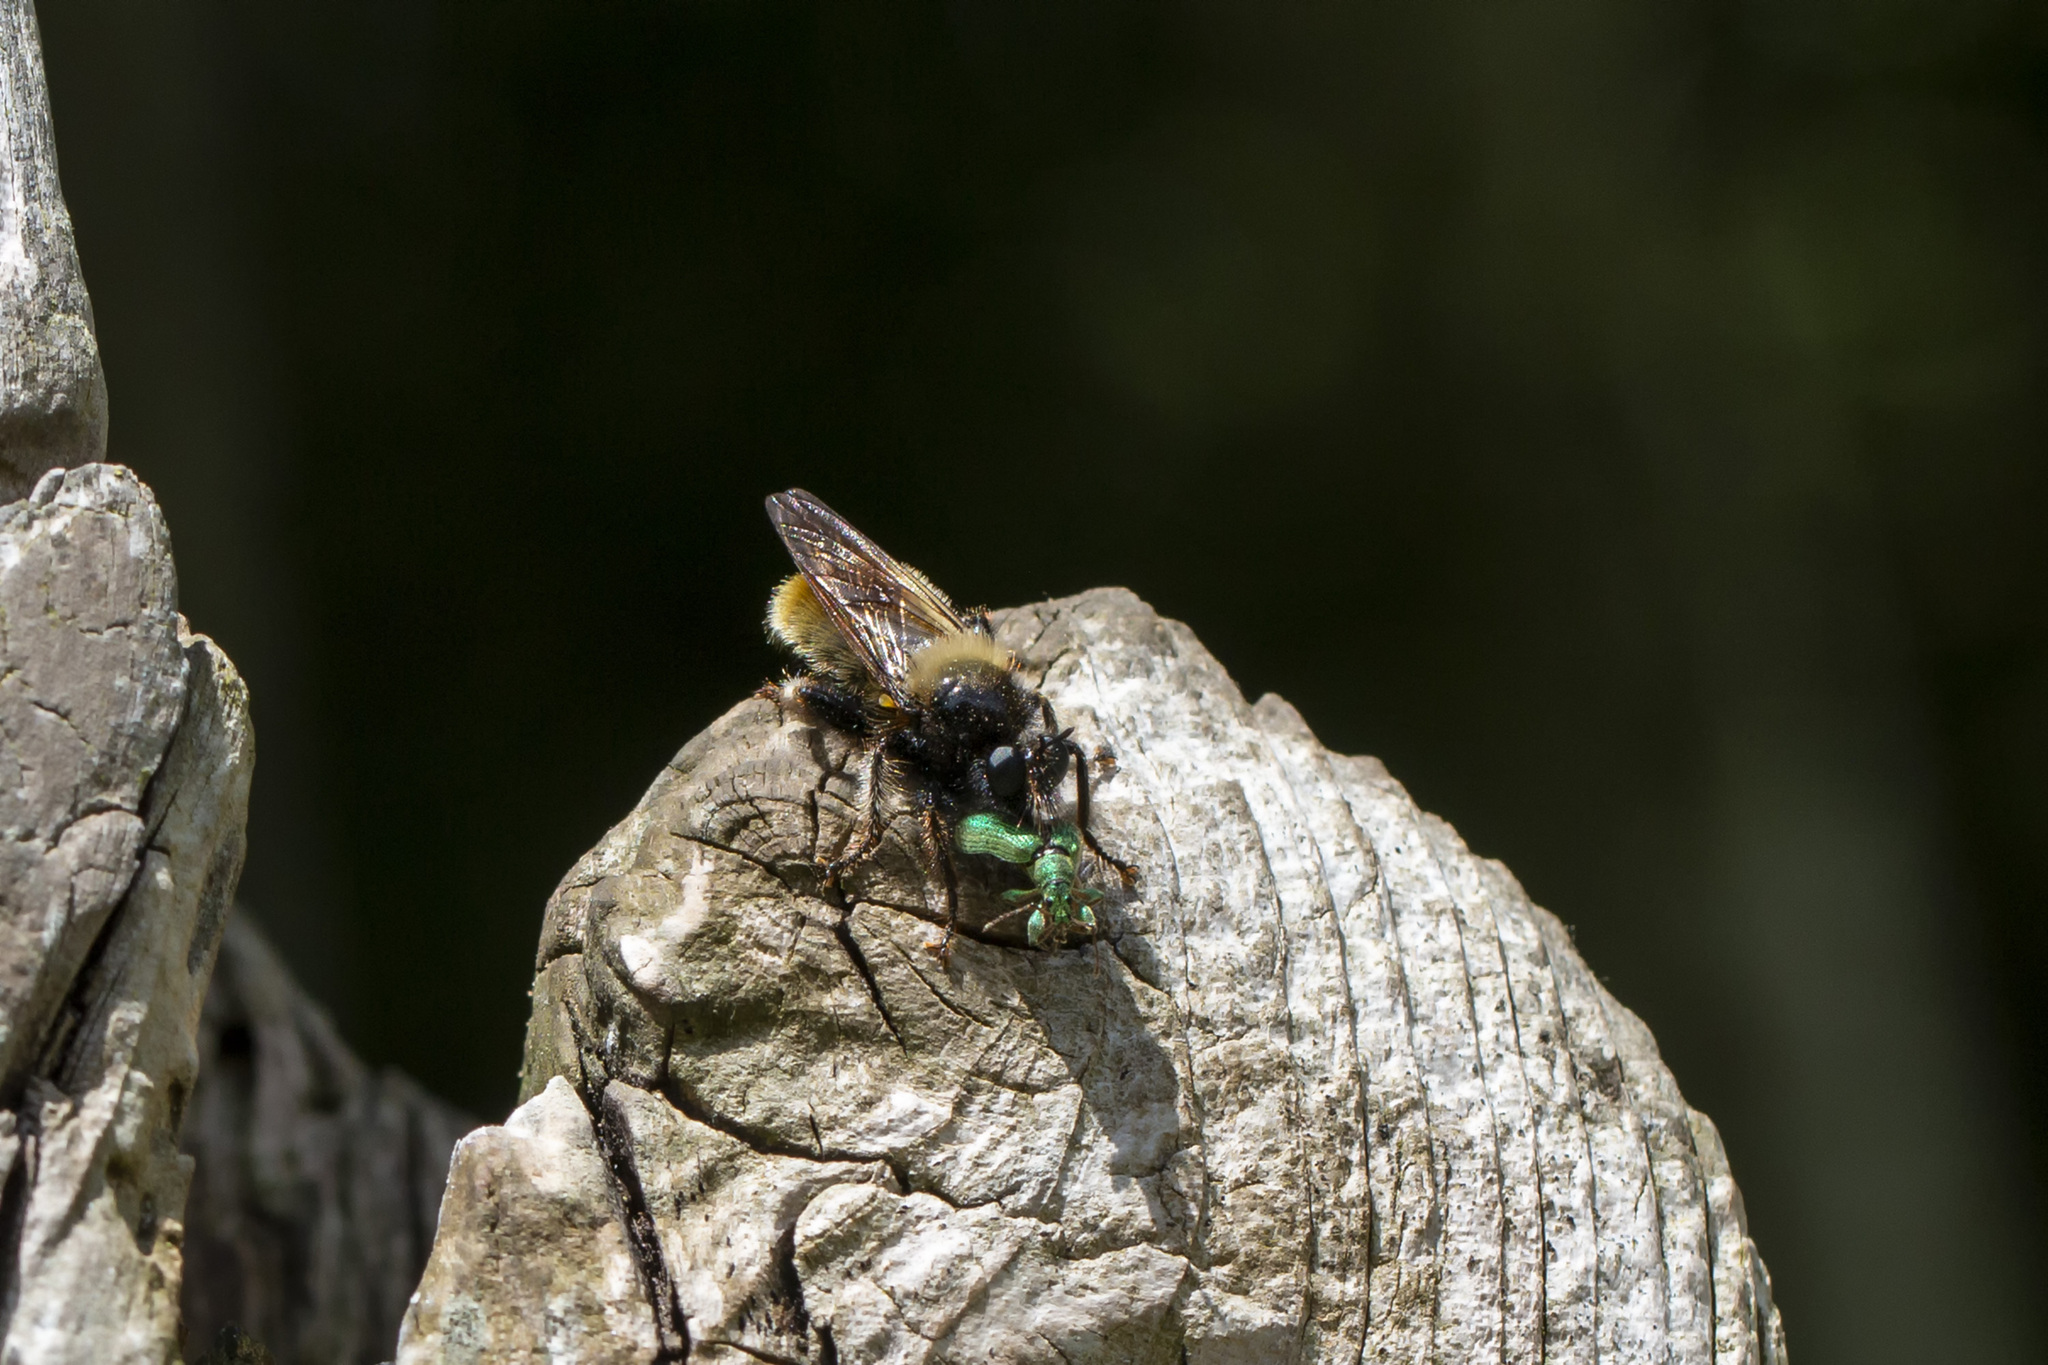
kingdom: Animalia
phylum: Arthropoda
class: Insecta
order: Diptera
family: Asilidae
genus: Laphria
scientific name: Laphria flava
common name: Bumblebee robberfly
